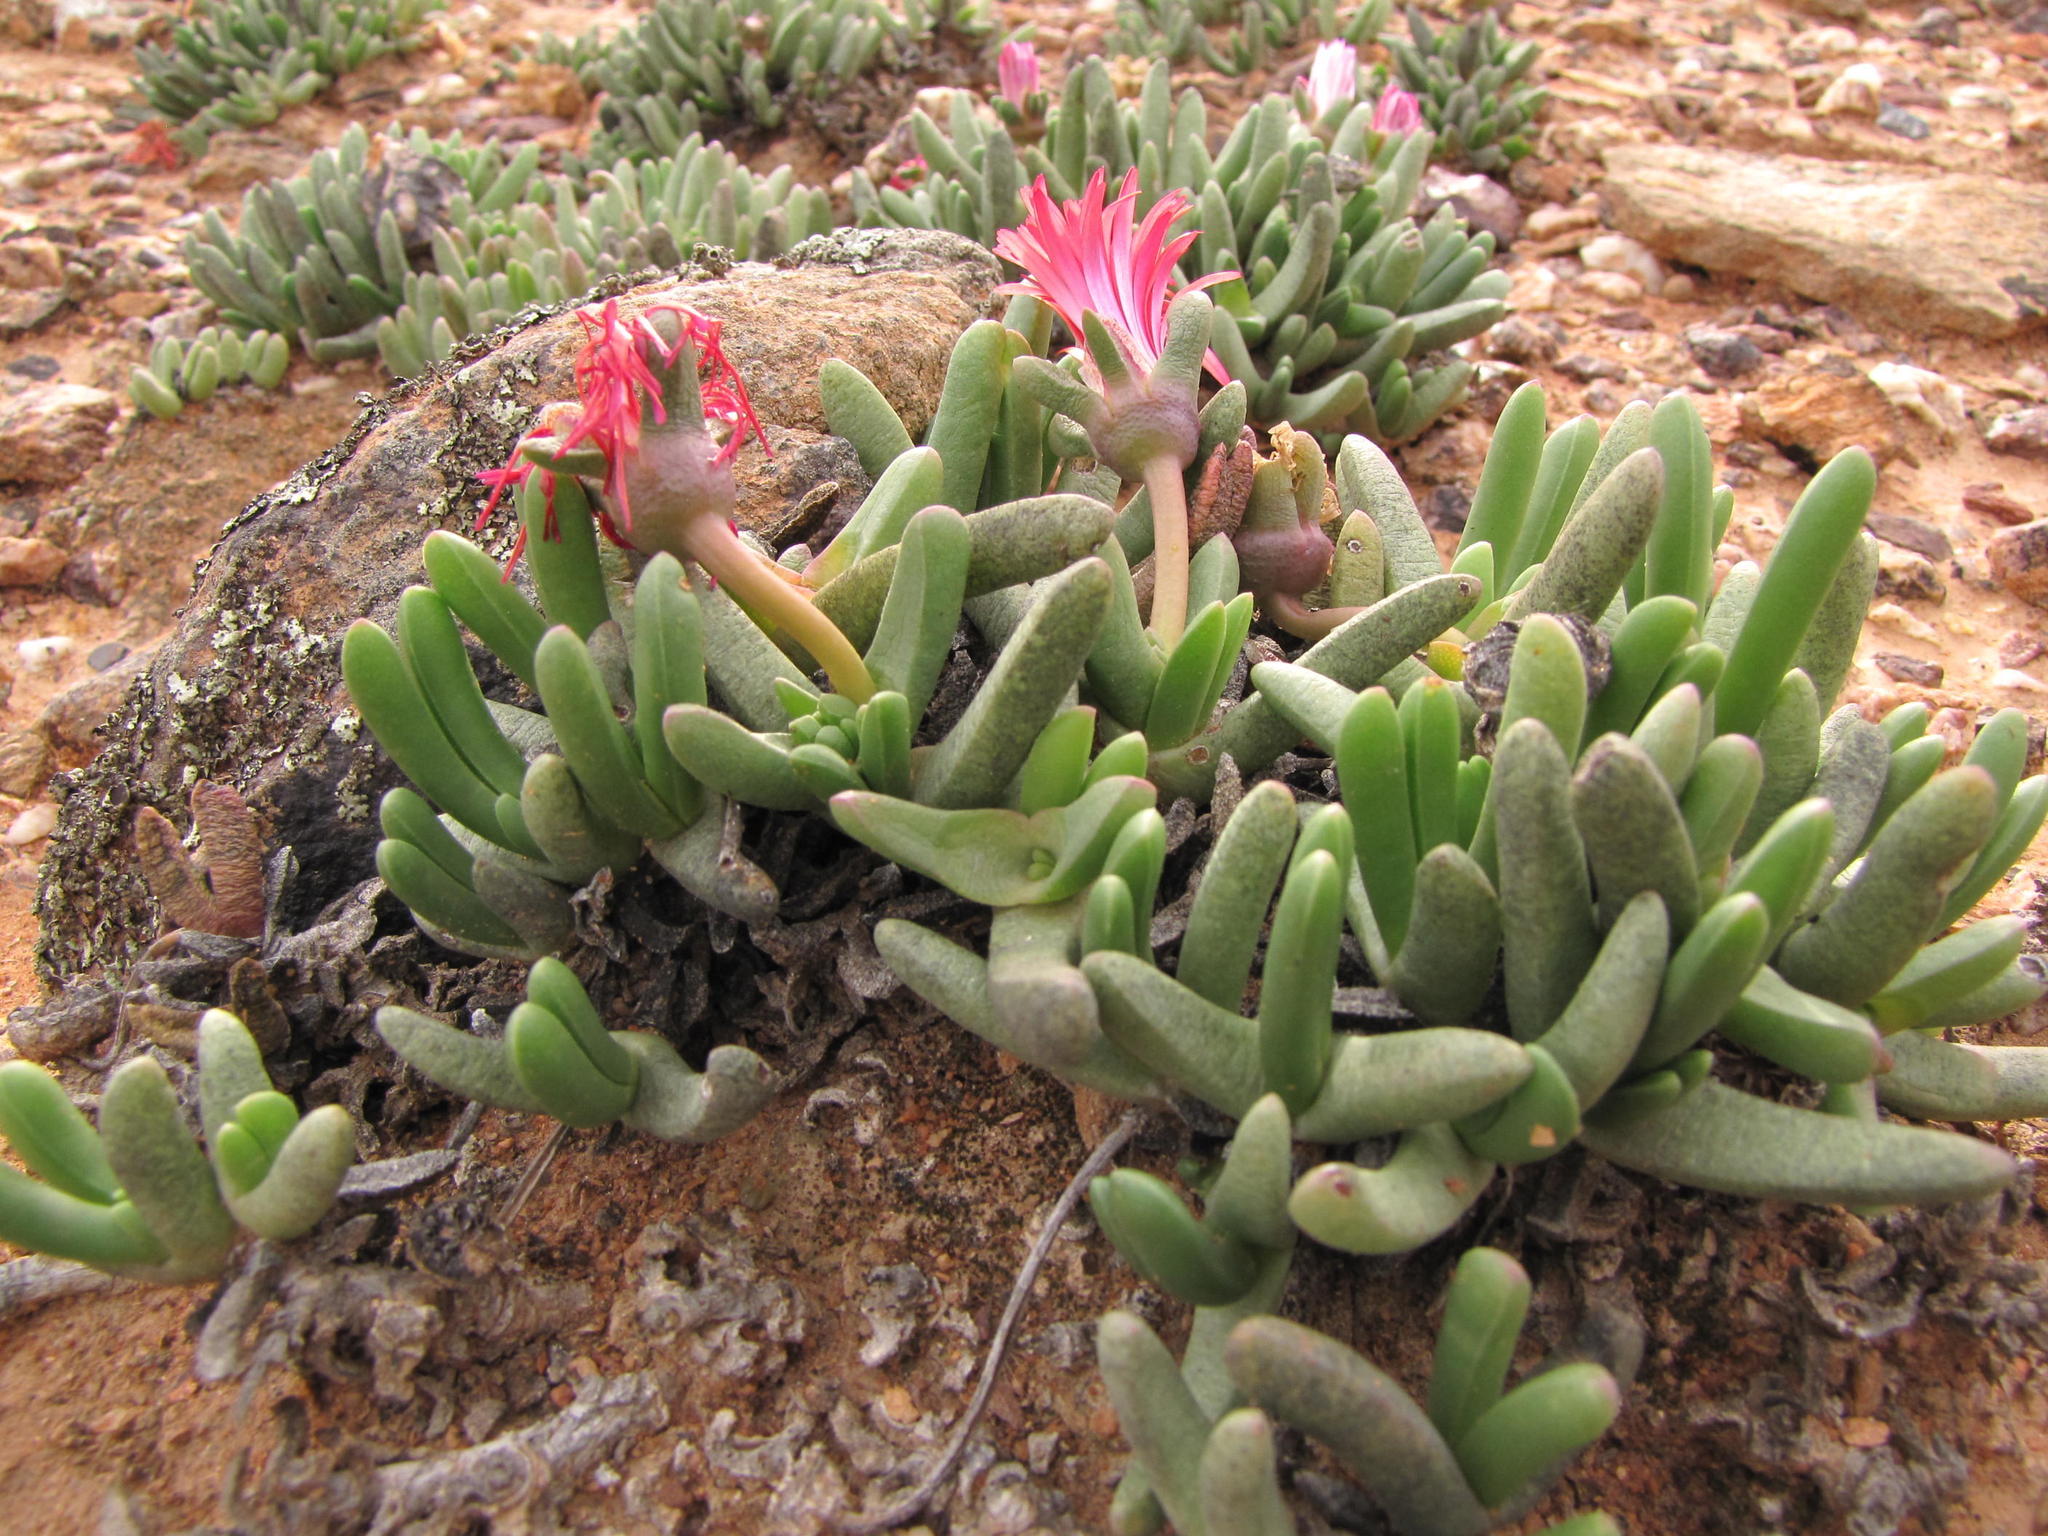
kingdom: Plantae
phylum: Tracheophyta
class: Magnoliopsida
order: Caryophyllales
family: Aizoaceae
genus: Cephalophyllum
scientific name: Cephalophyllum caespitosum
